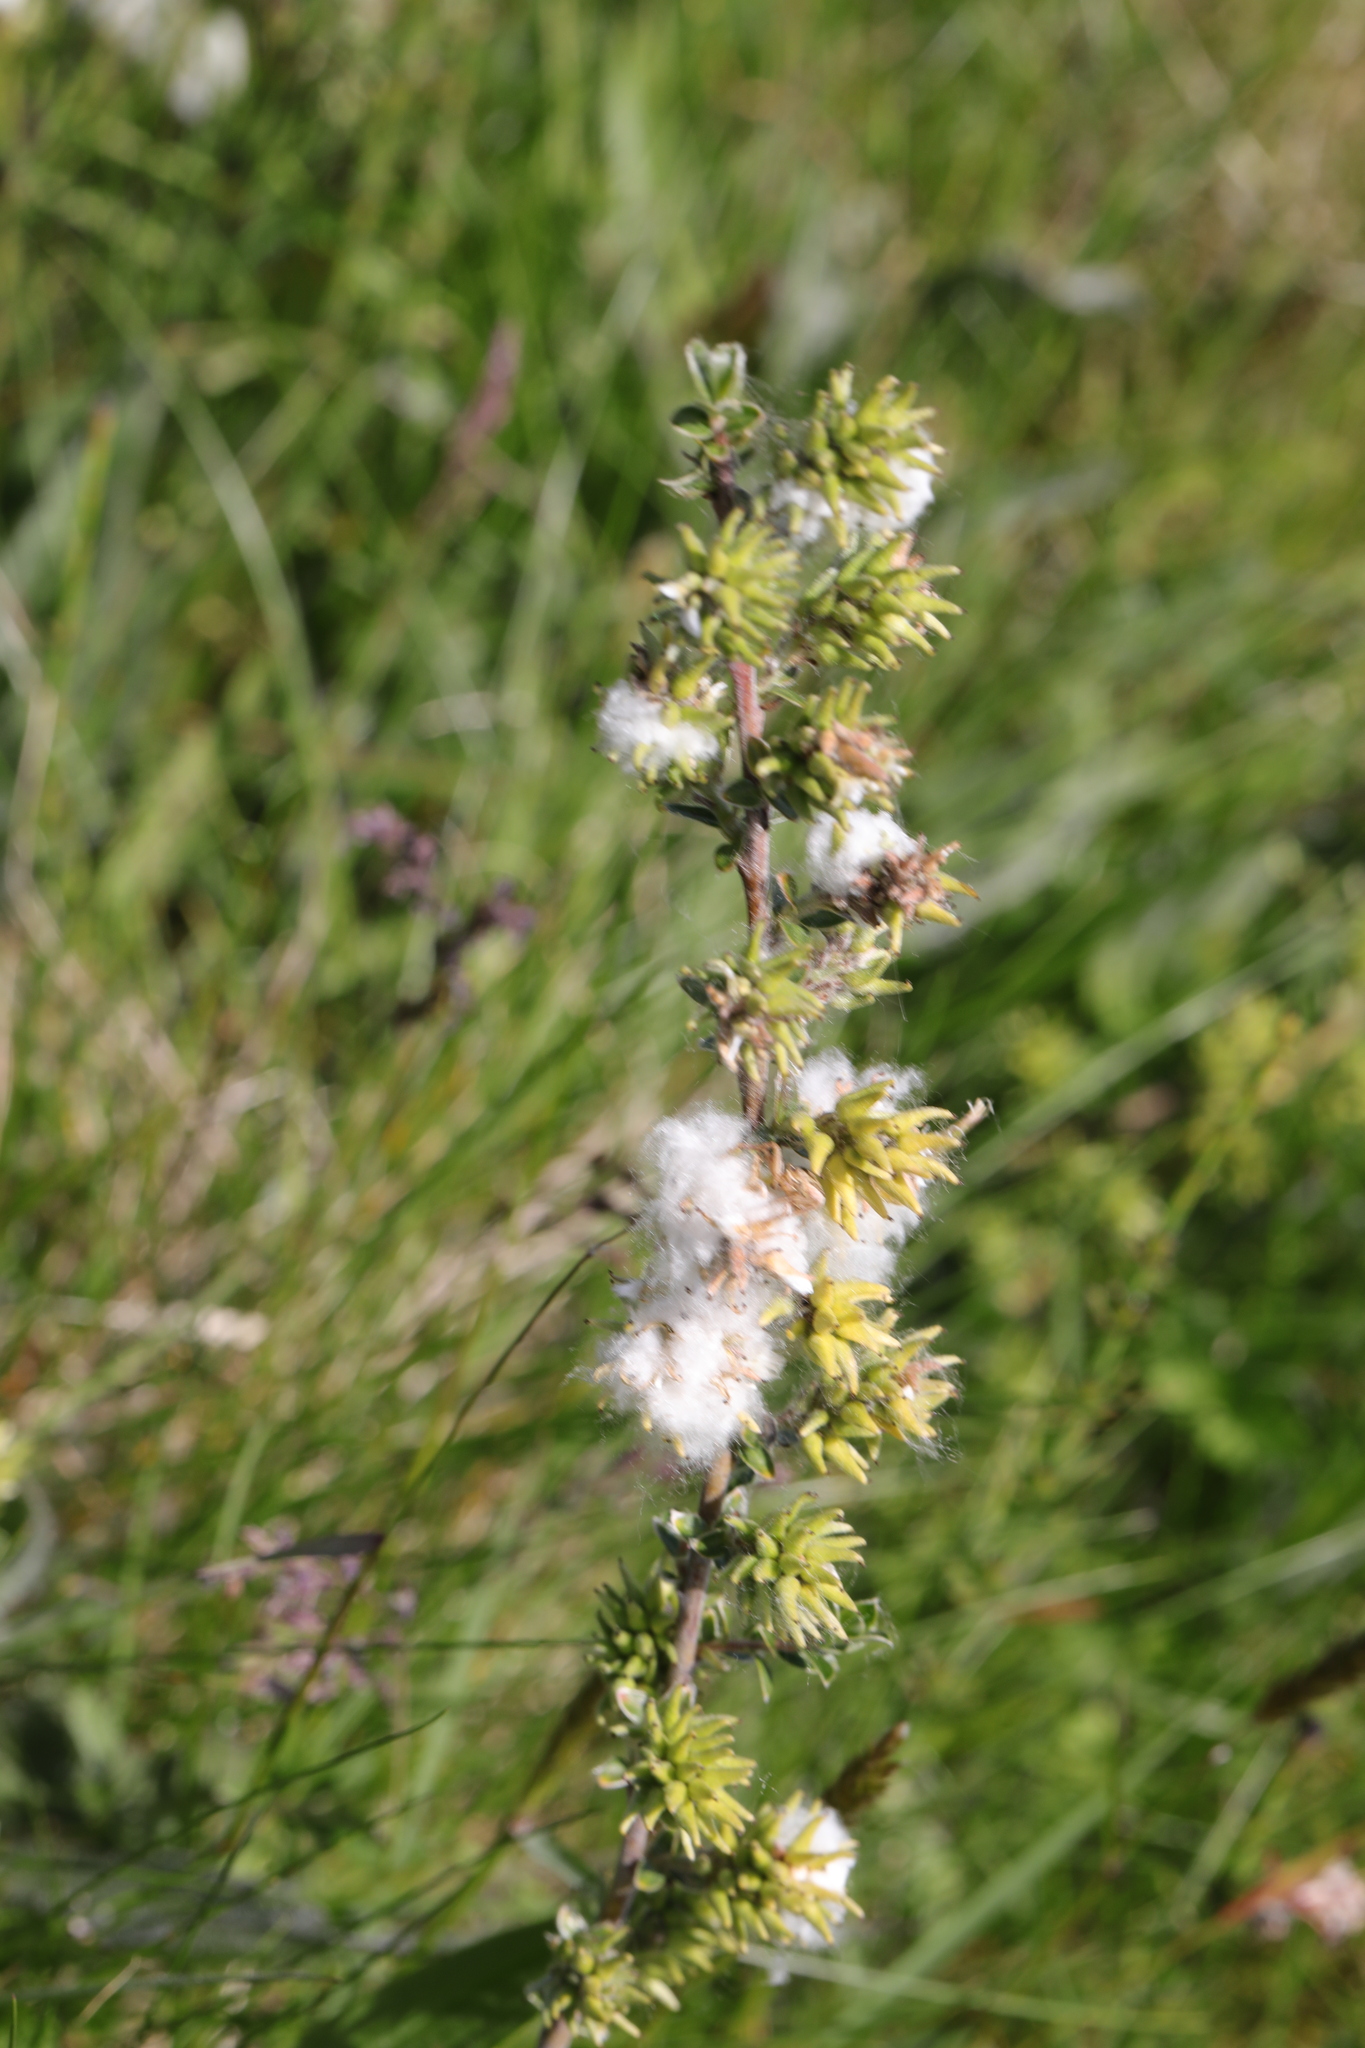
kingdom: Plantae
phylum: Tracheophyta
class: Magnoliopsida
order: Malpighiales
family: Salicaceae
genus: Salix
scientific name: Salix repens
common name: Creeping willow
